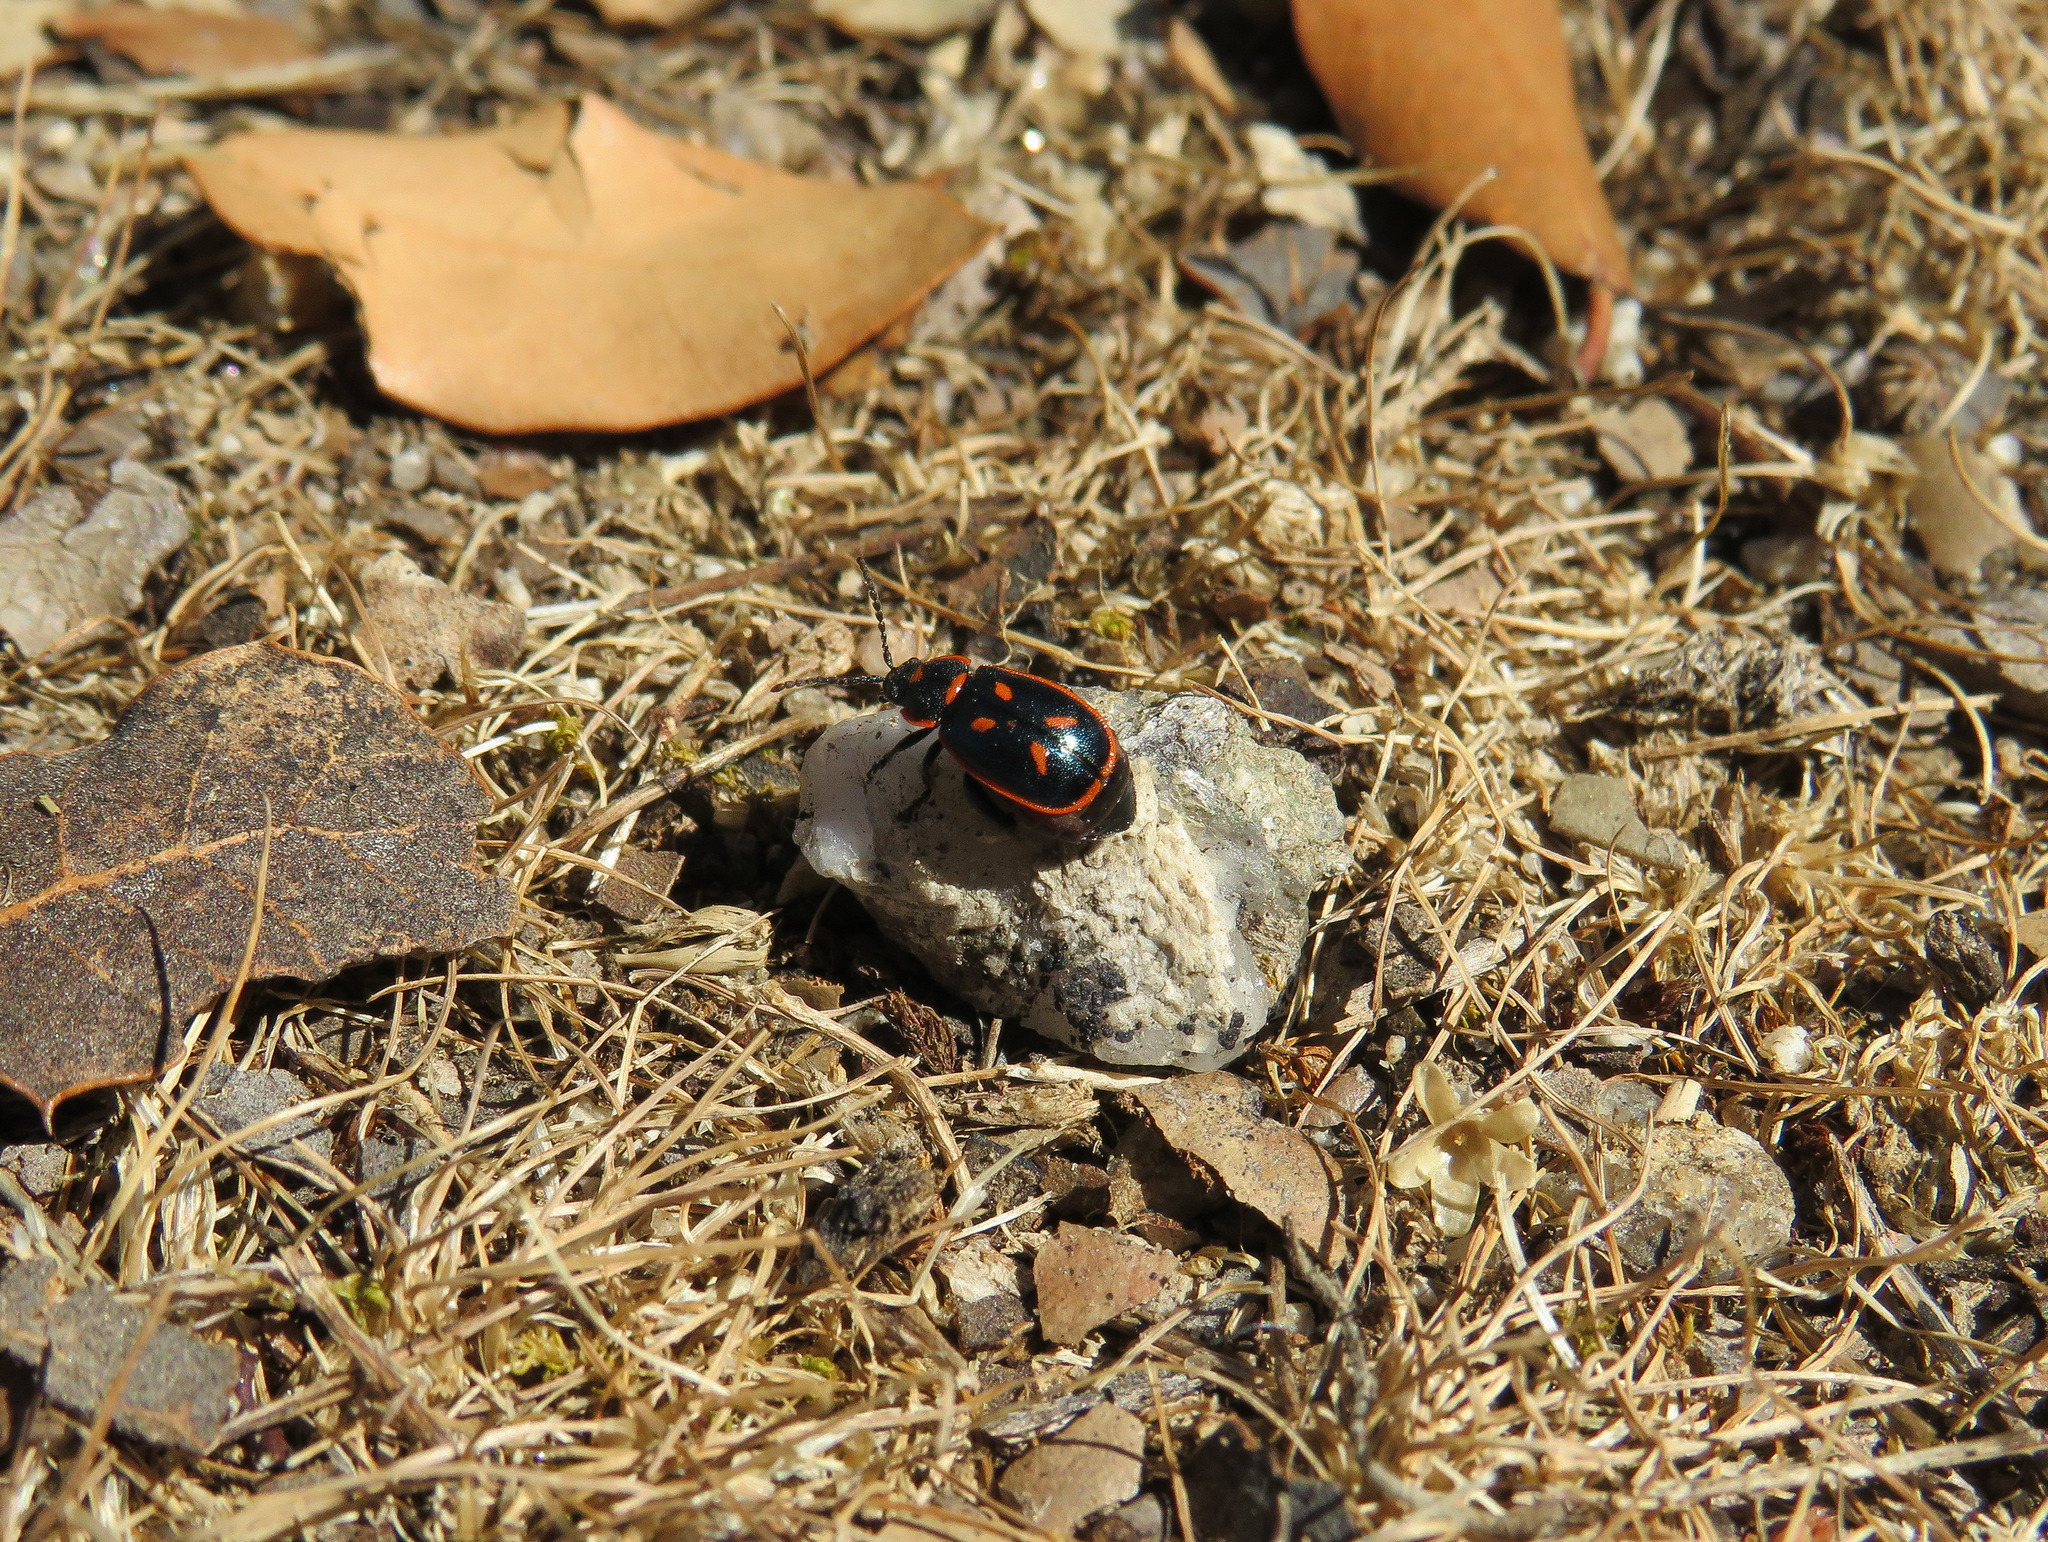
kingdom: Animalia
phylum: Arthropoda
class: Insecta
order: Coleoptera
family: Chrysomelidae
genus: Oedionychis
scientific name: Oedionychis cincta
